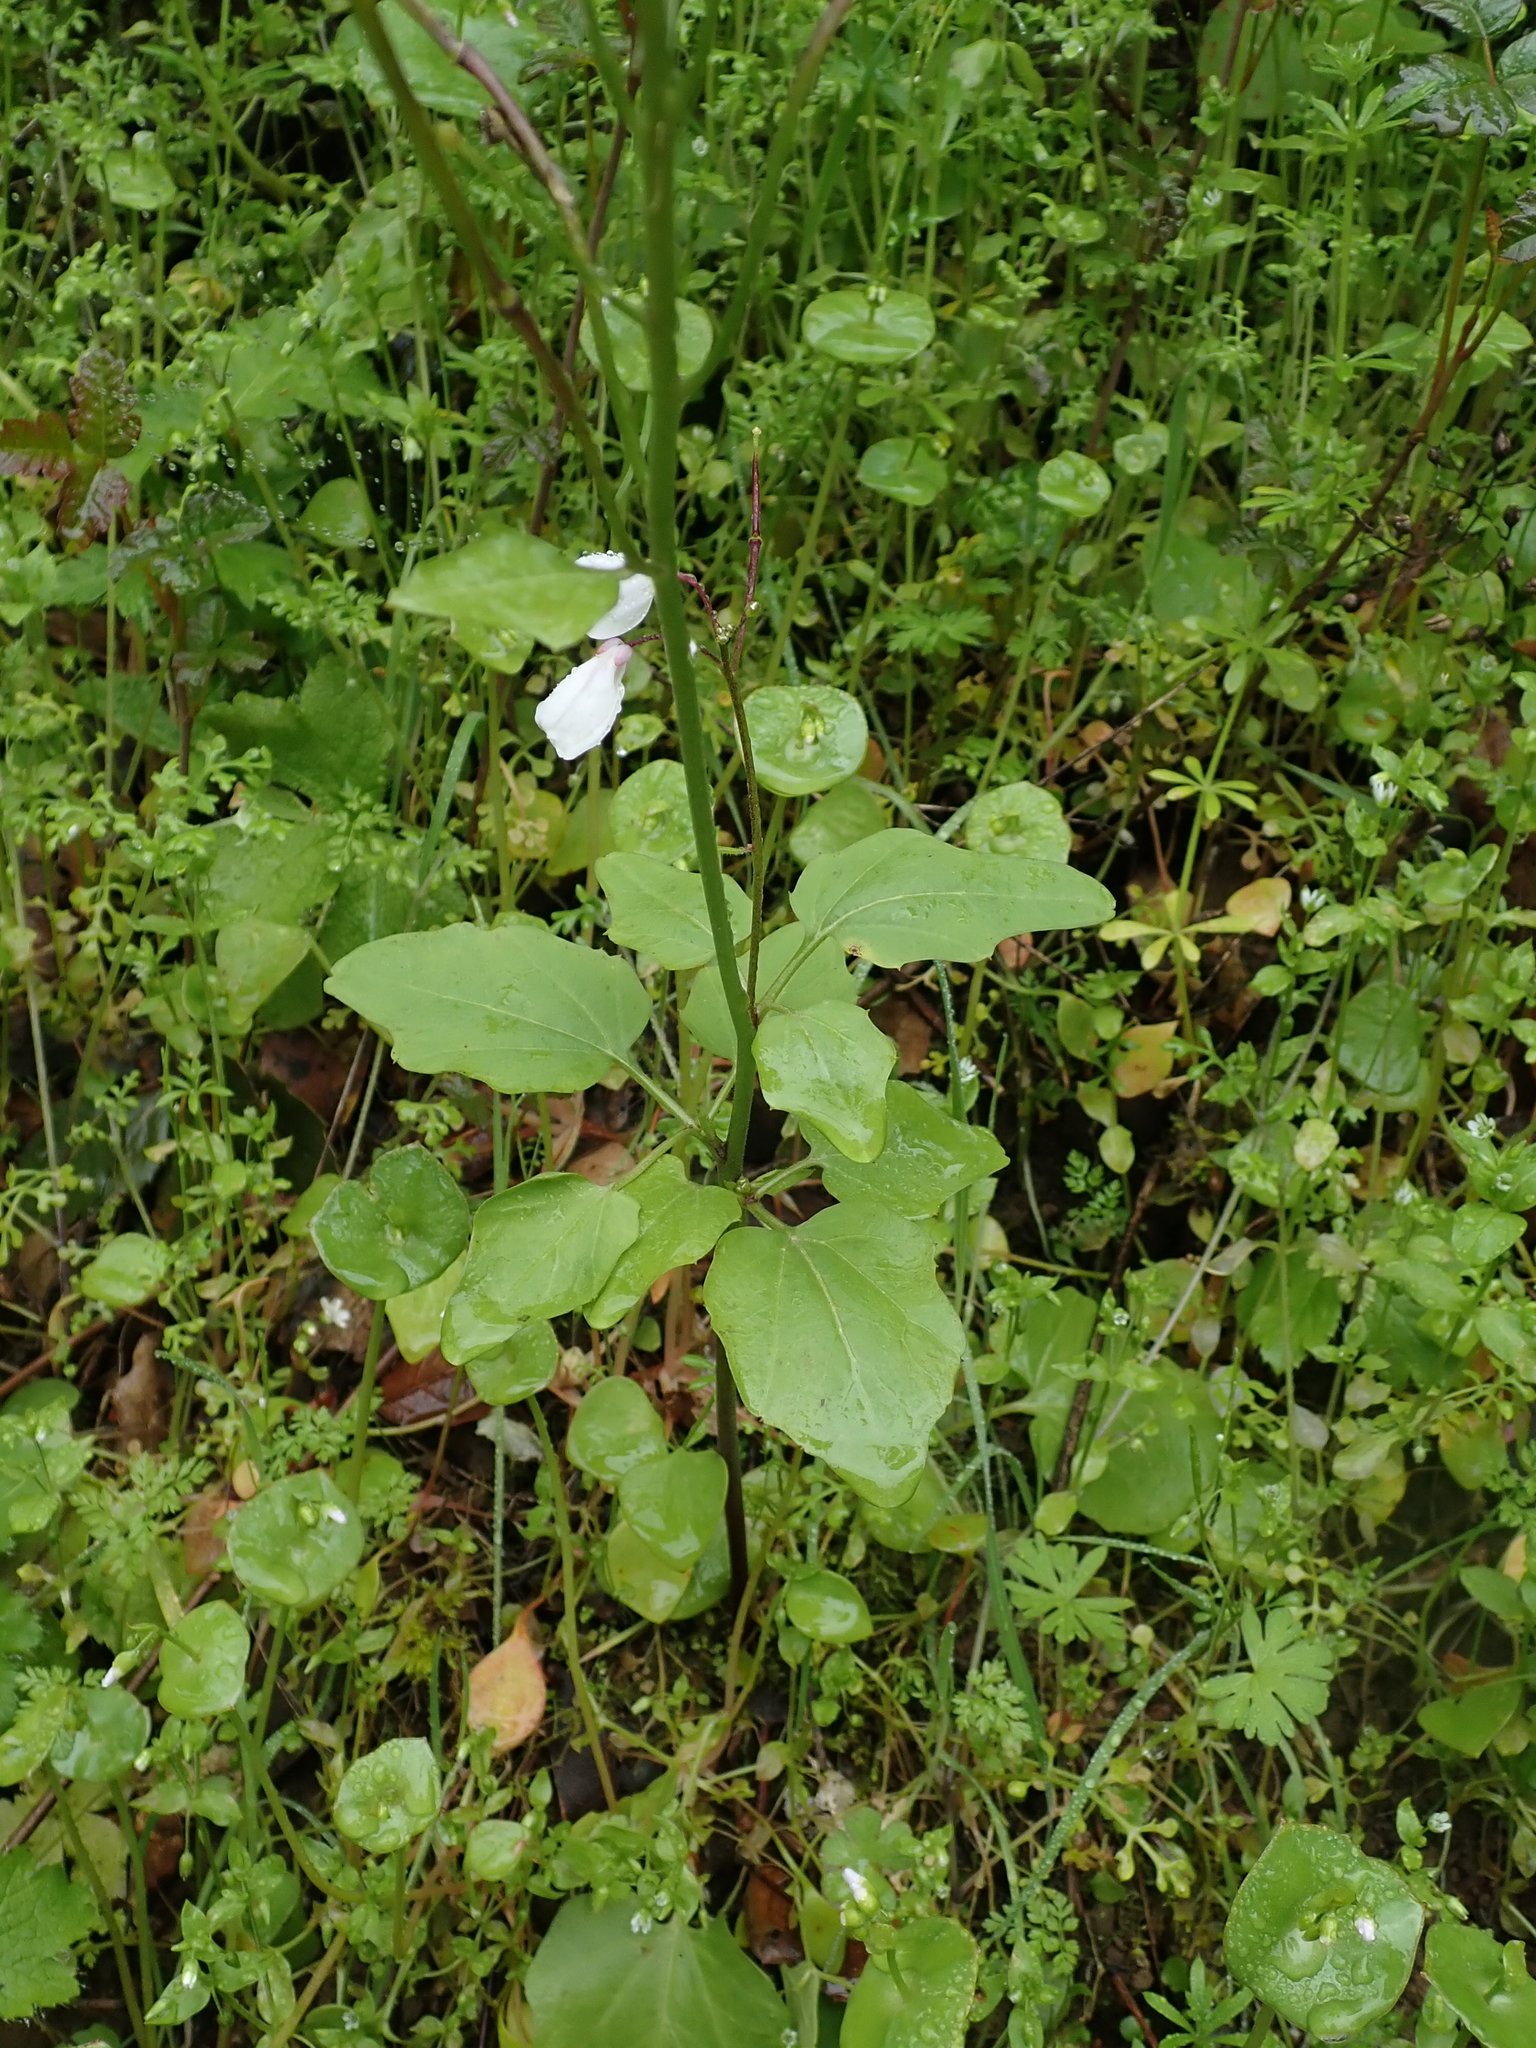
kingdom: Plantae
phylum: Tracheophyta
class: Magnoliopsida
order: Brassicales
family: Brassicaceae
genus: Cardamine
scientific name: Cardamine californica
